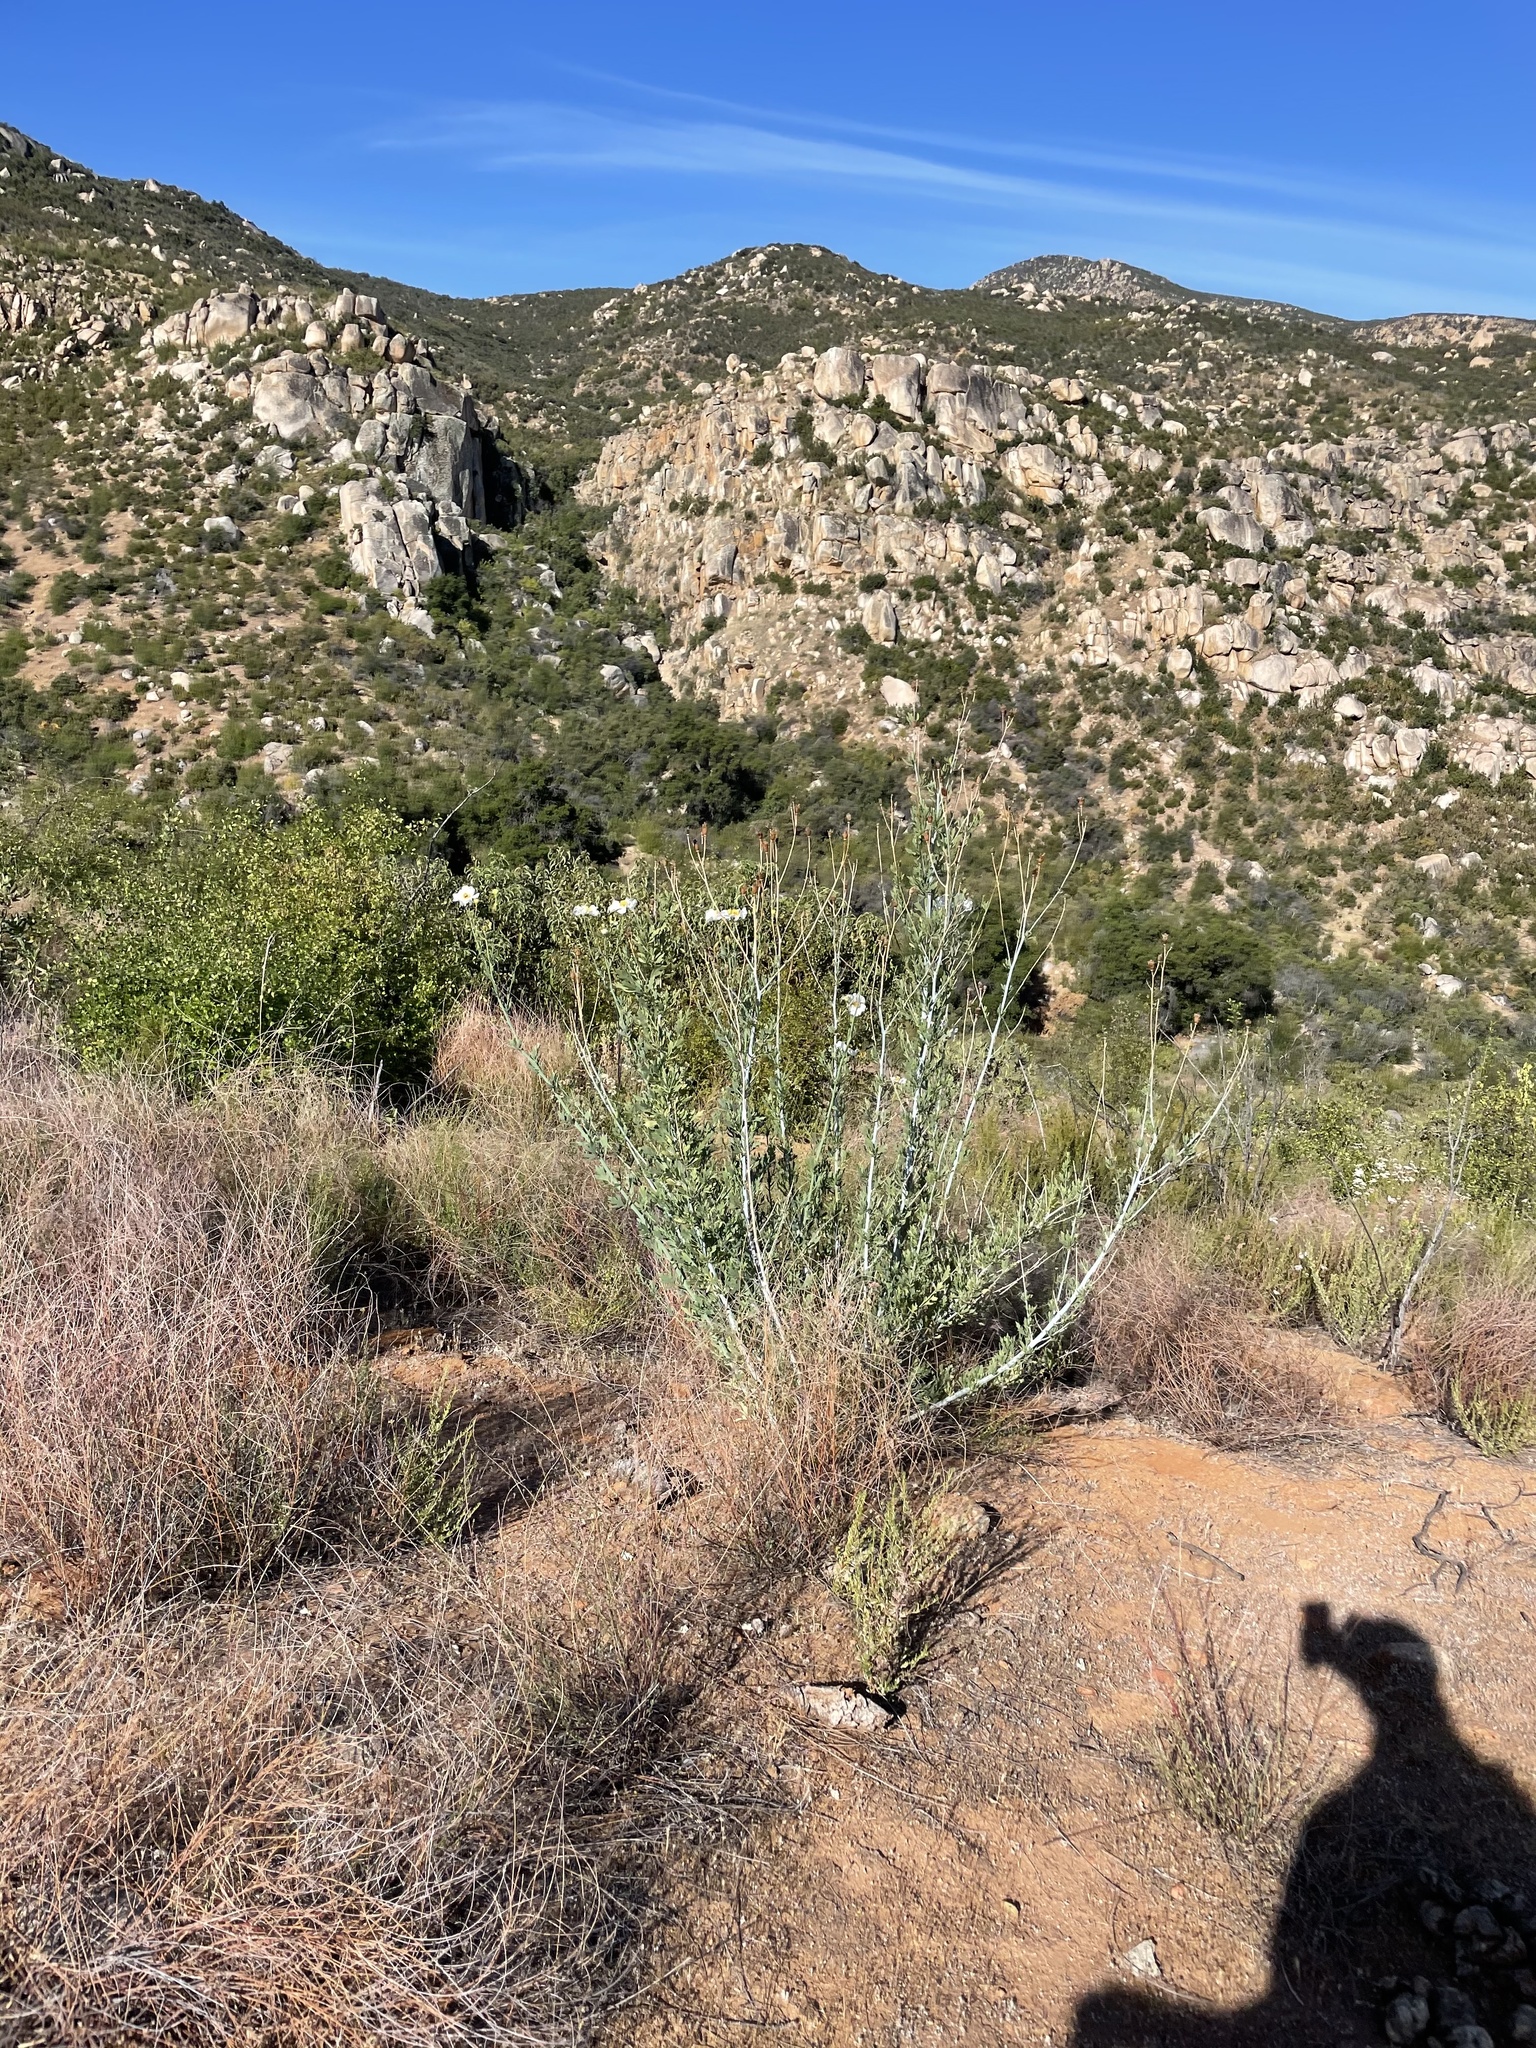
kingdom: Plantae
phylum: Tracheophyta
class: Magnoliopsida
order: Ranunculales
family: Papaveraceae
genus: Romneya
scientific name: Romneya trichocalyx
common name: Hairy matilija-poppy
